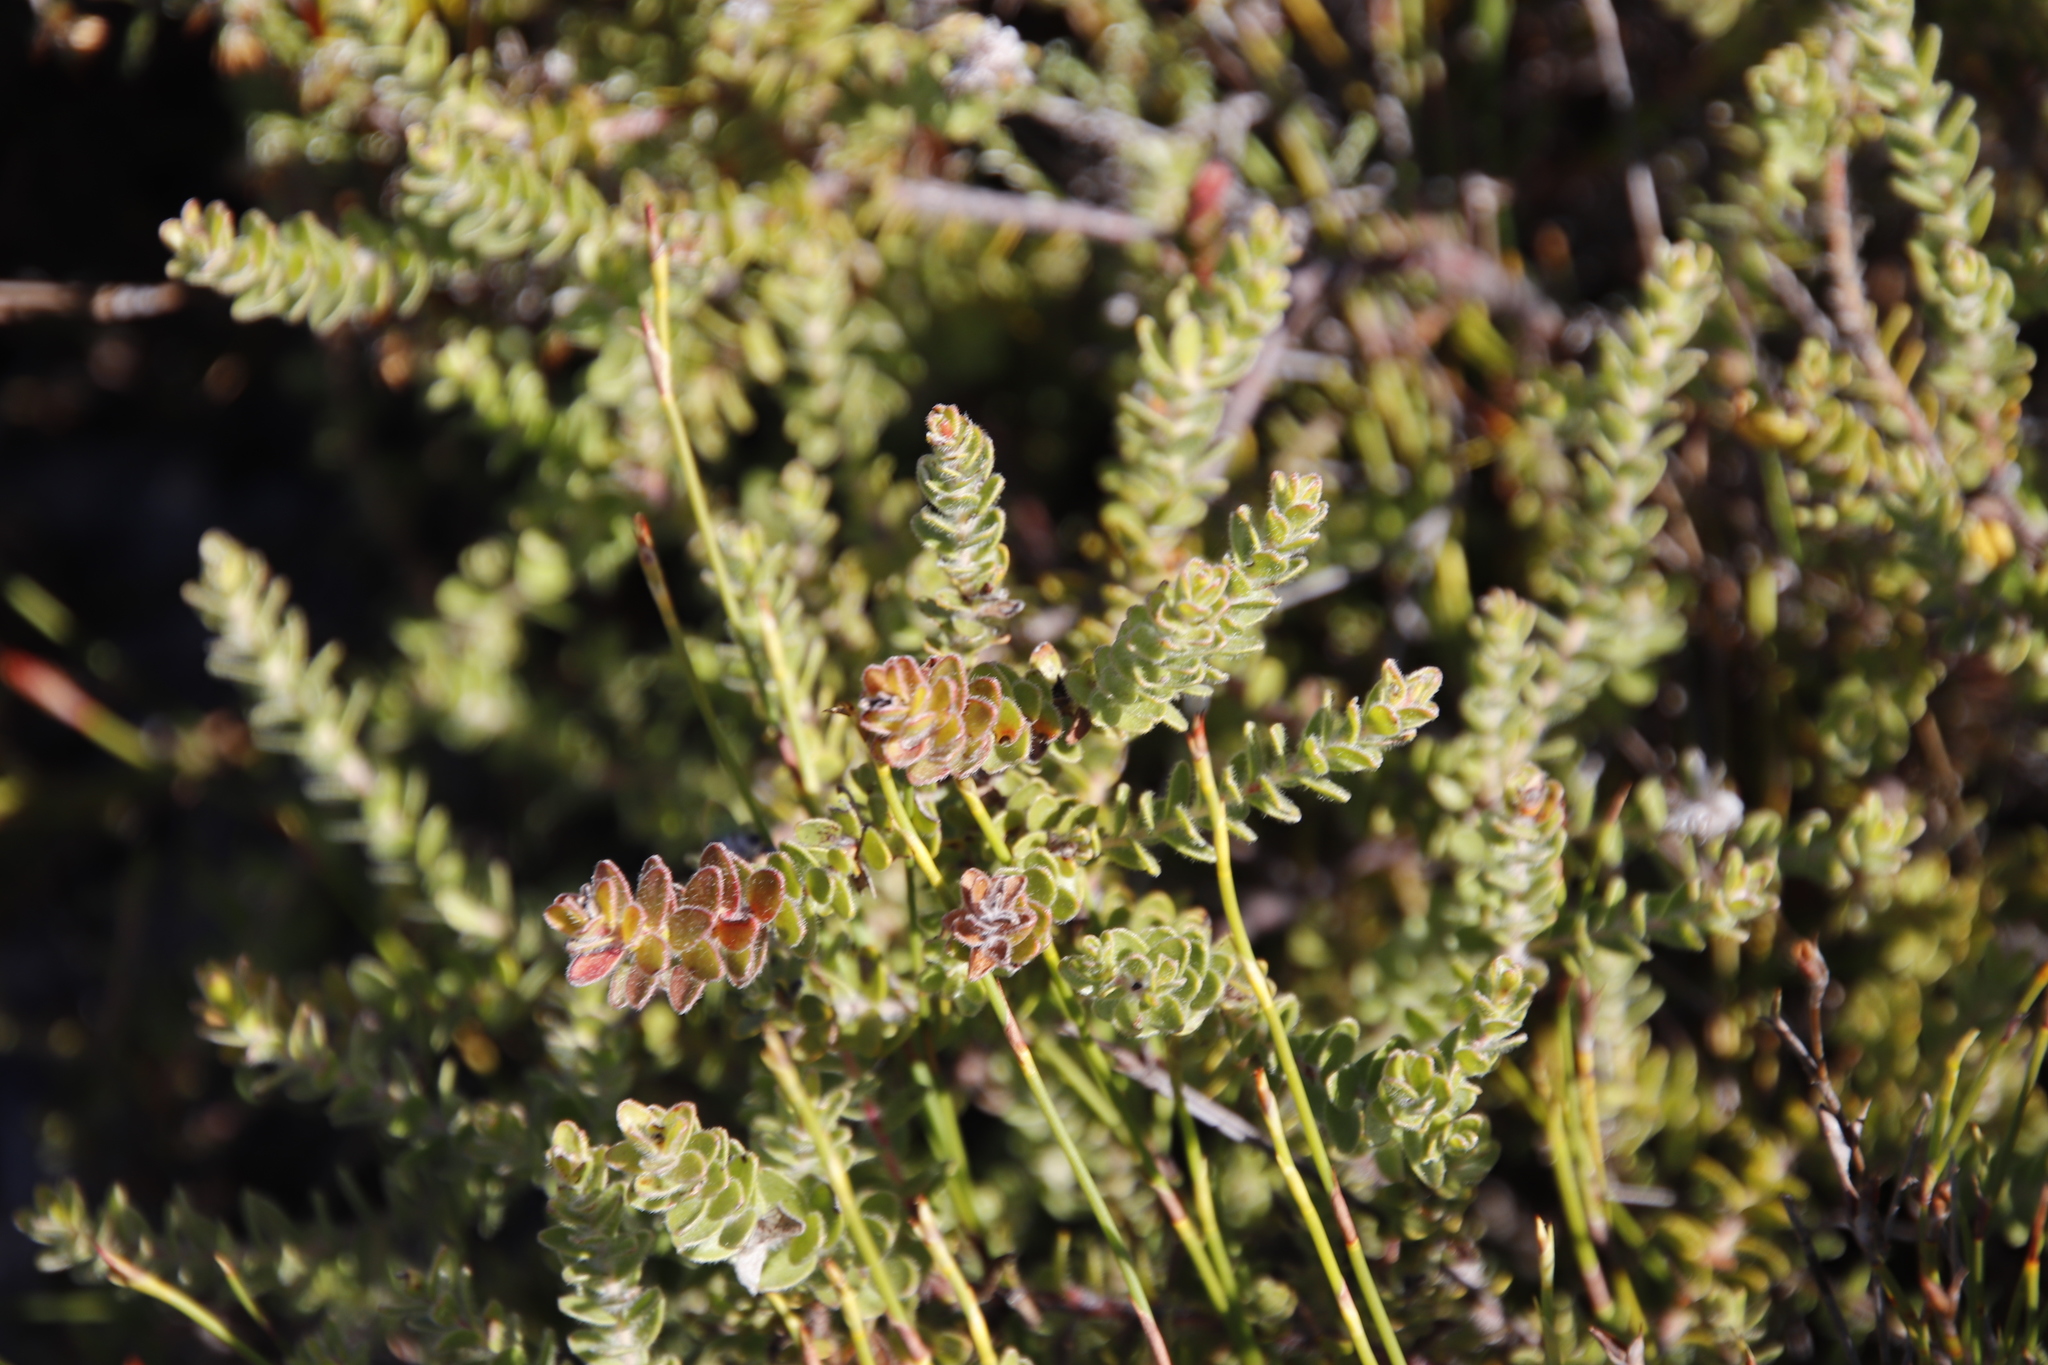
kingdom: Plantae
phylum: Tracheophyta
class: Magnoliopsida
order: Proteales
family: Proteaceae
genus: Diastella
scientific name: Diastella divaricata
